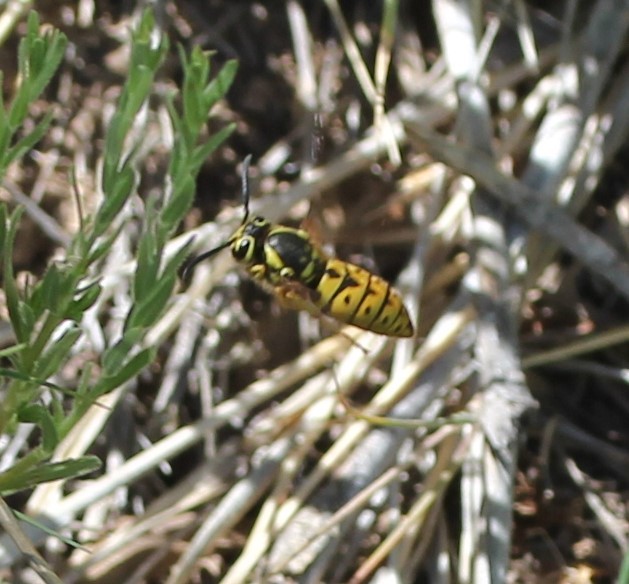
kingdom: Animalia
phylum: Arthropoda
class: Insecta
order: Hymenoptera
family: Vespidae
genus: Vespula
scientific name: Vespula pensylvanica
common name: Western yellowjacket
